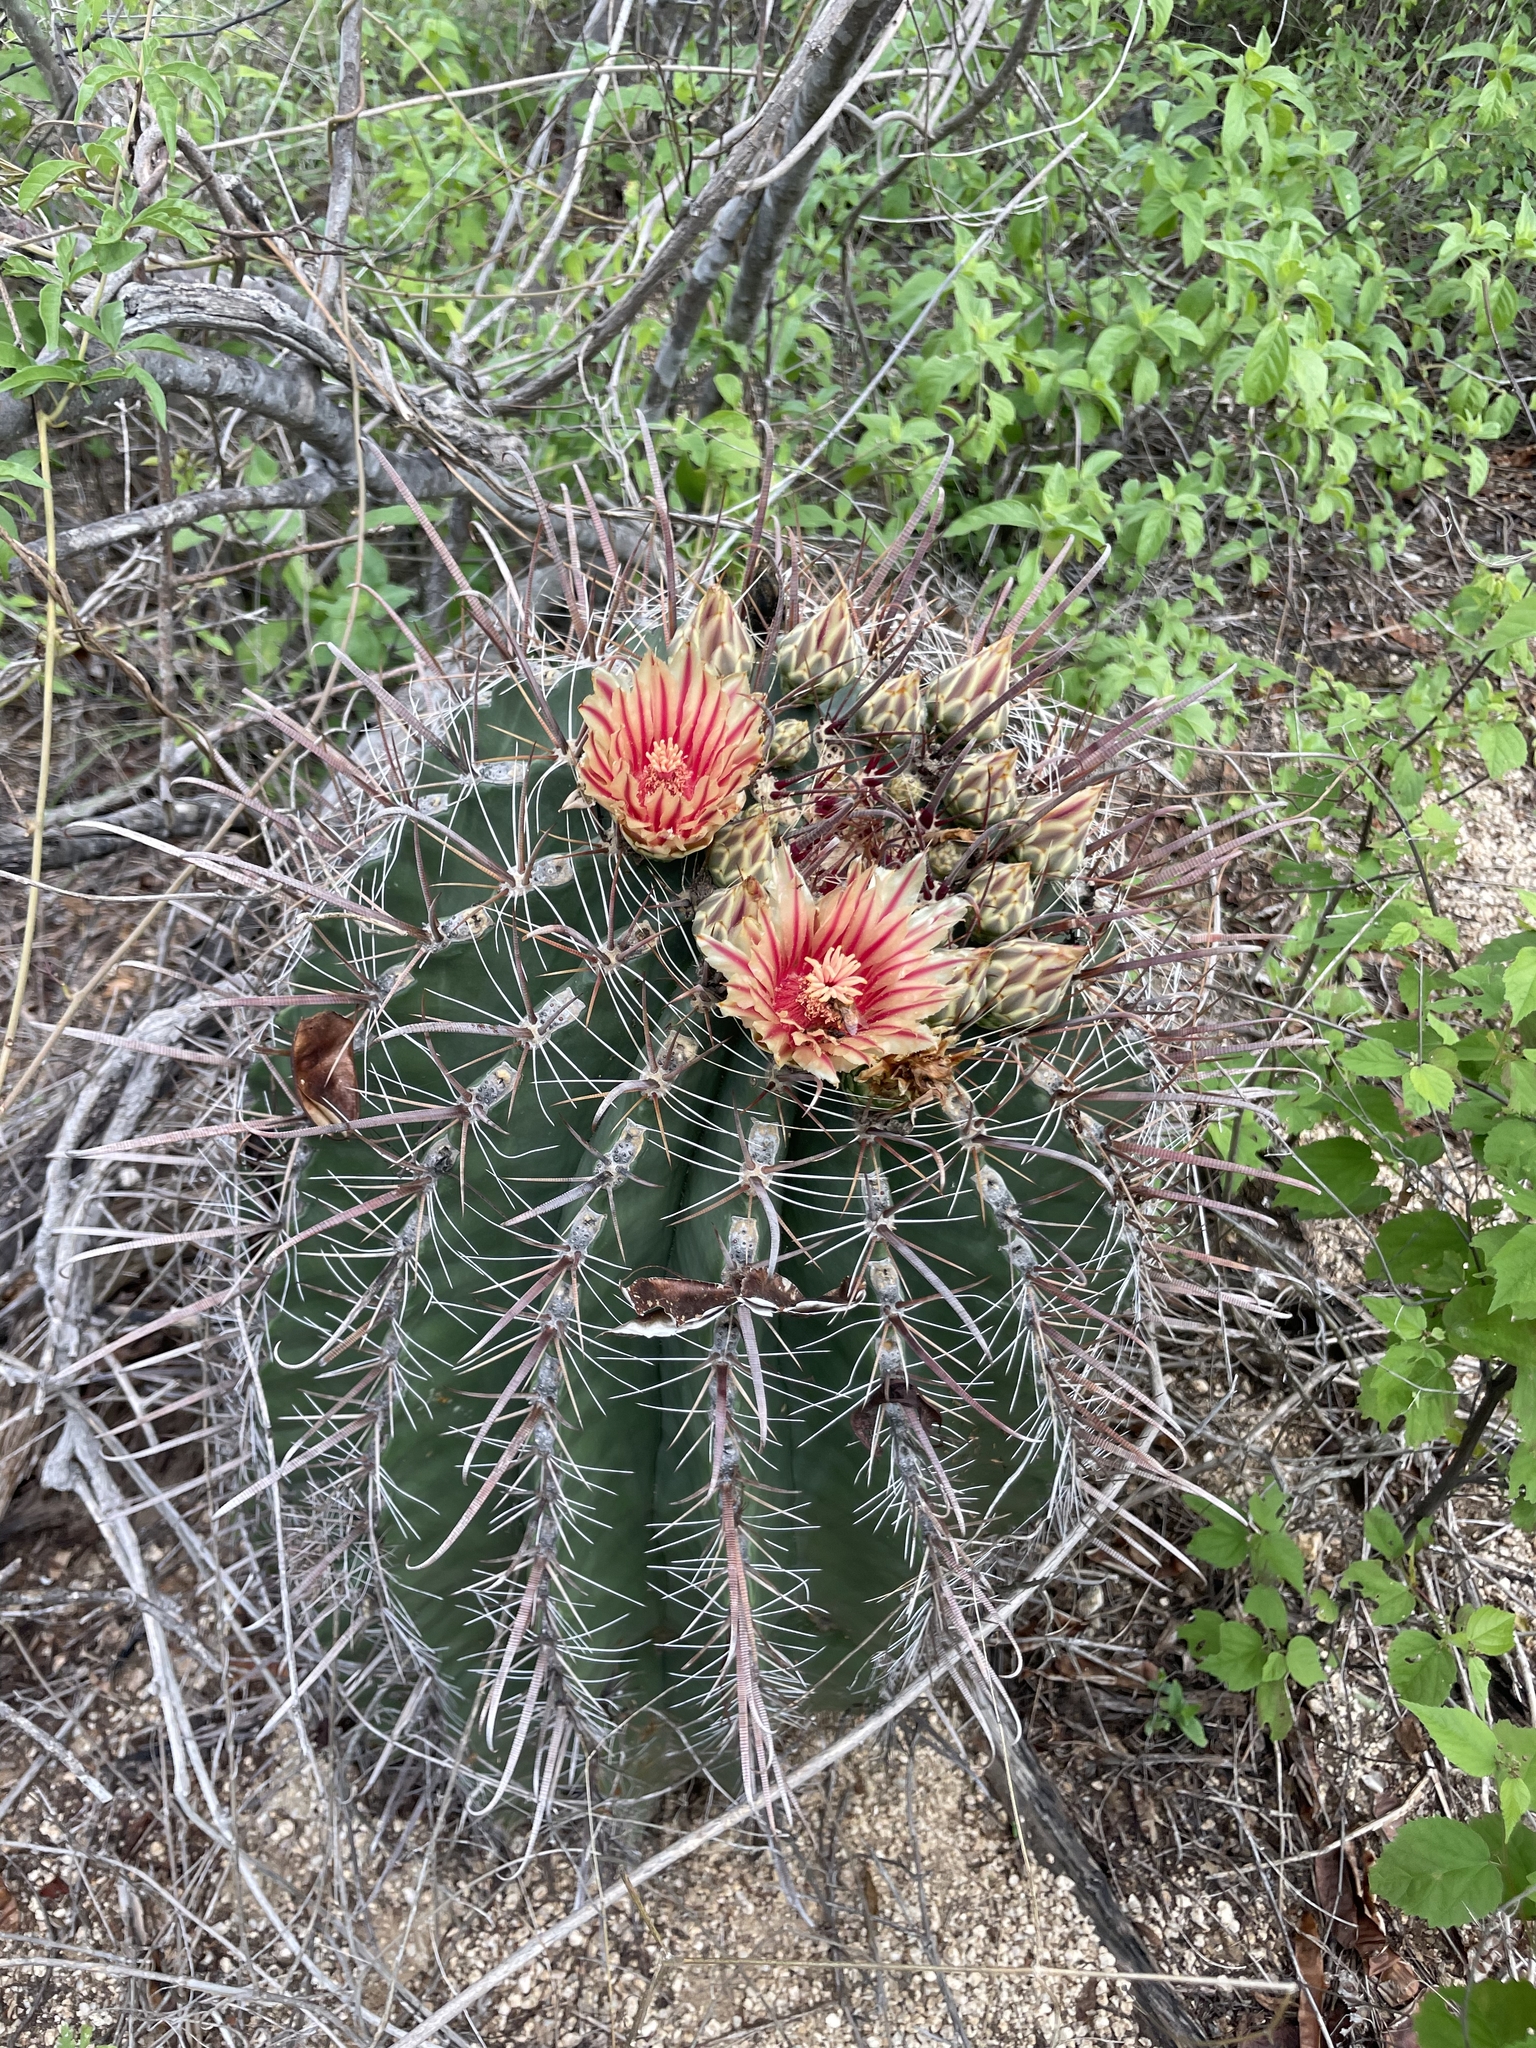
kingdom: Plantae
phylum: Tracheophyta
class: Magnoliopsida
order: Caryophyllales
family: Cactaceae
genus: Ferocactus
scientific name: Ferocactus townsendianus
